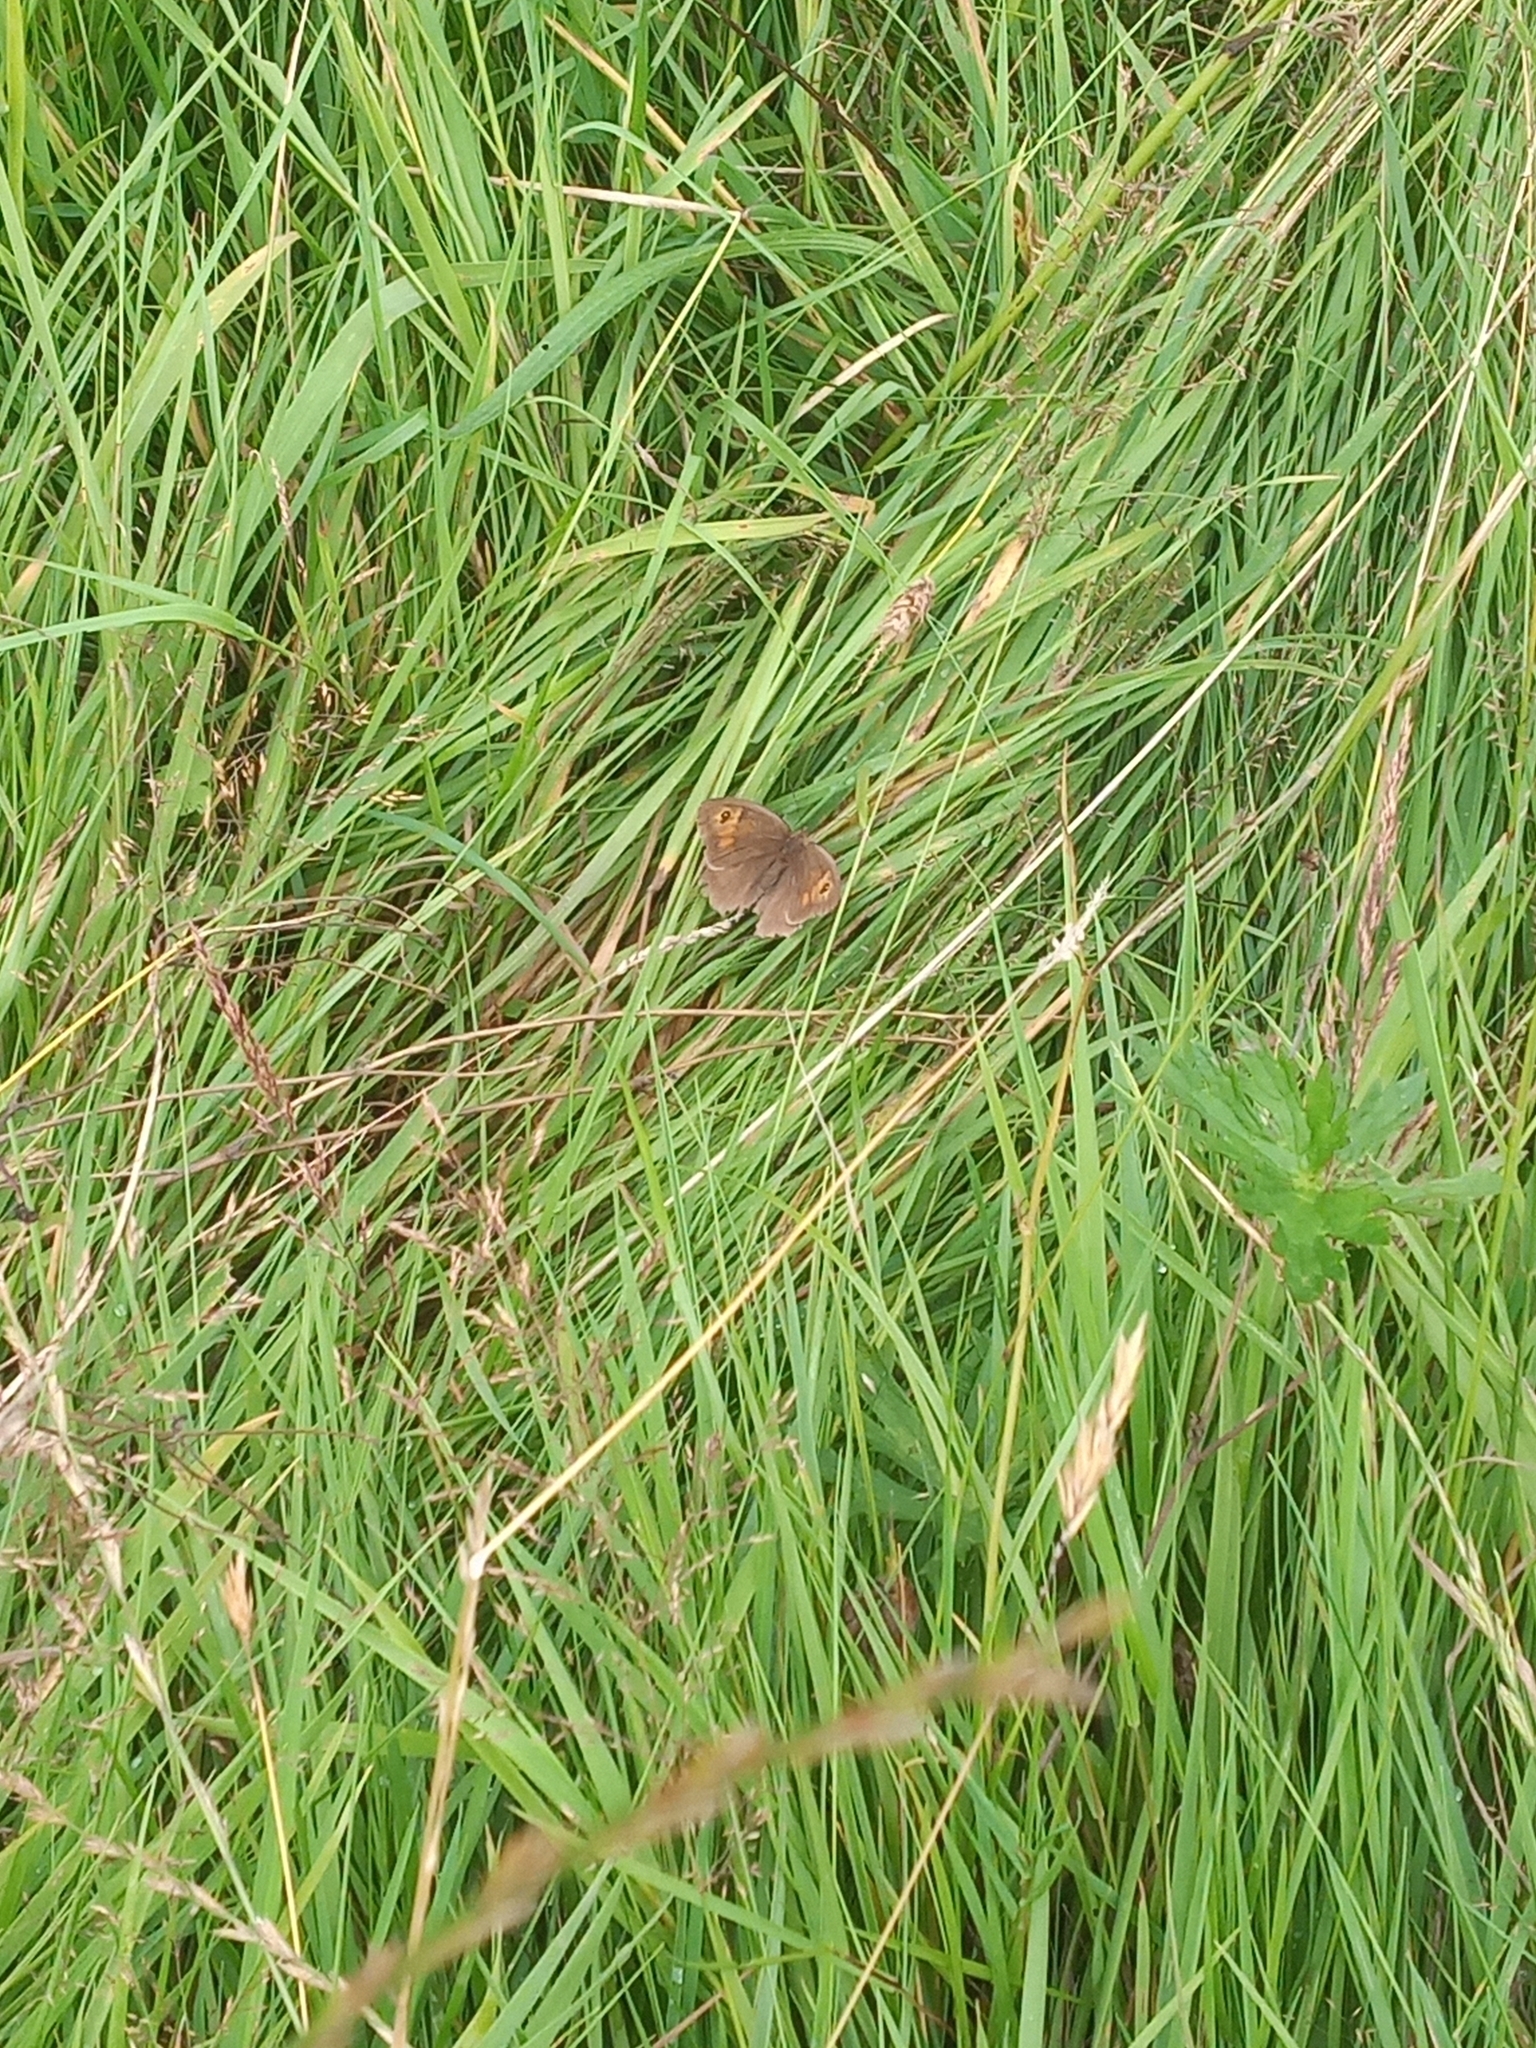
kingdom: Animalia
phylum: Arthropoda
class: Insecta
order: Lepidoptera
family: Nymphalidae
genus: Maniola
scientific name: Maniola jurtina
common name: Meadow brown
